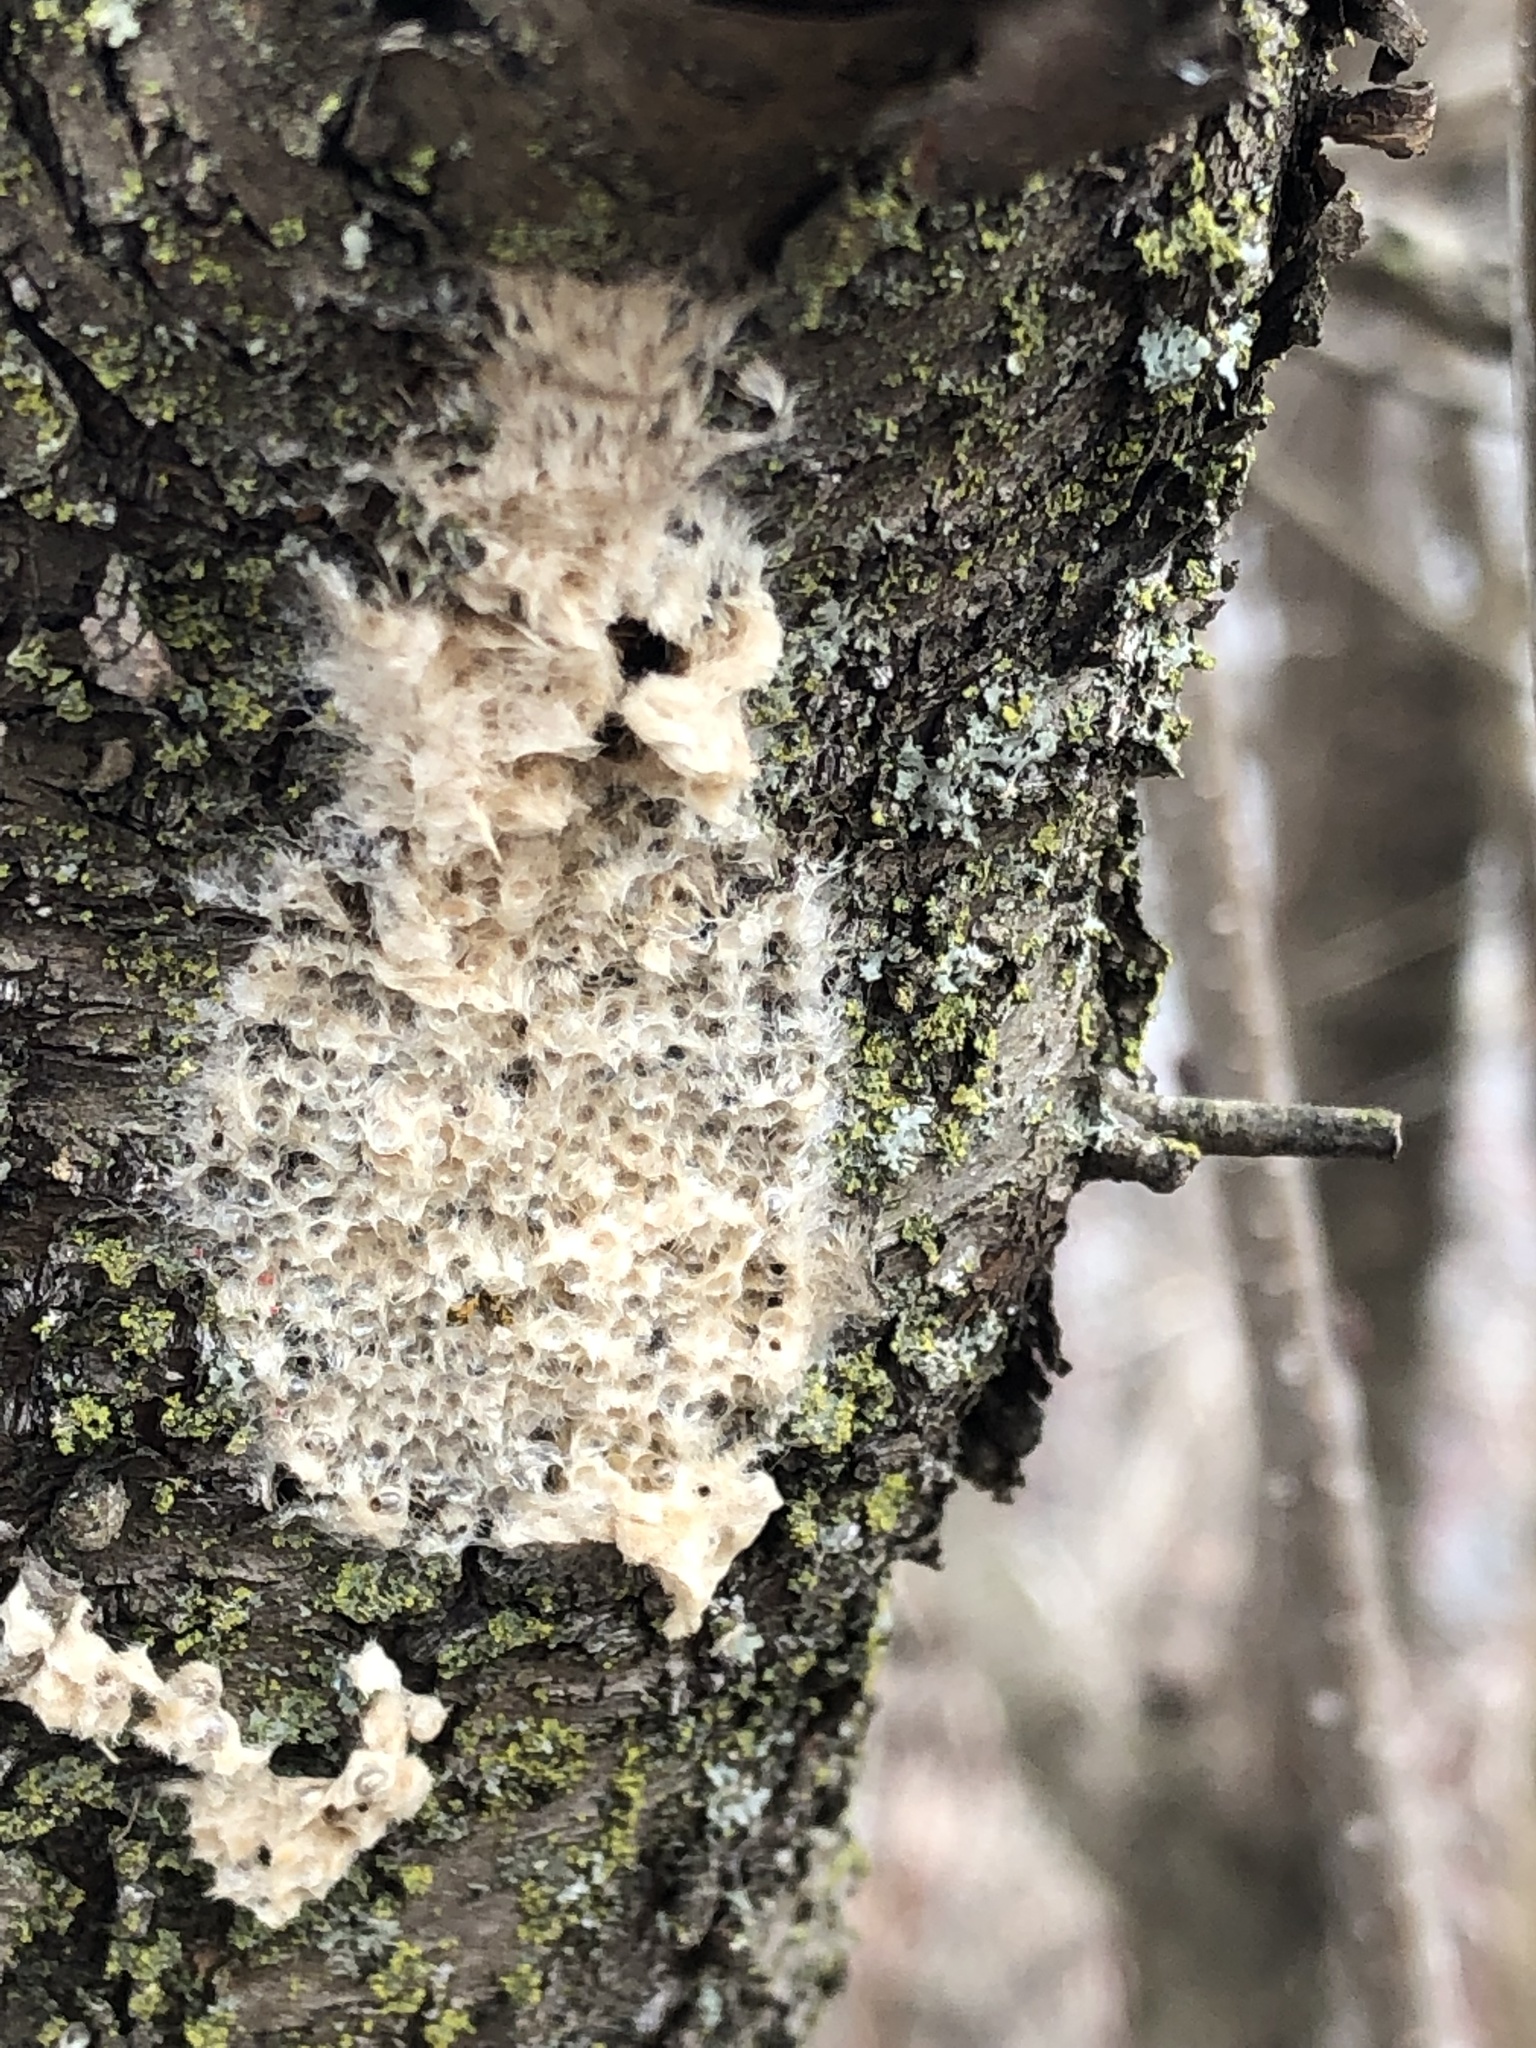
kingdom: Animalia
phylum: Arthropoda
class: Insecta
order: Lepidoptera
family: Erebidae
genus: Lymantria
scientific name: Lymantria dispar
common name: Gypsy moth
